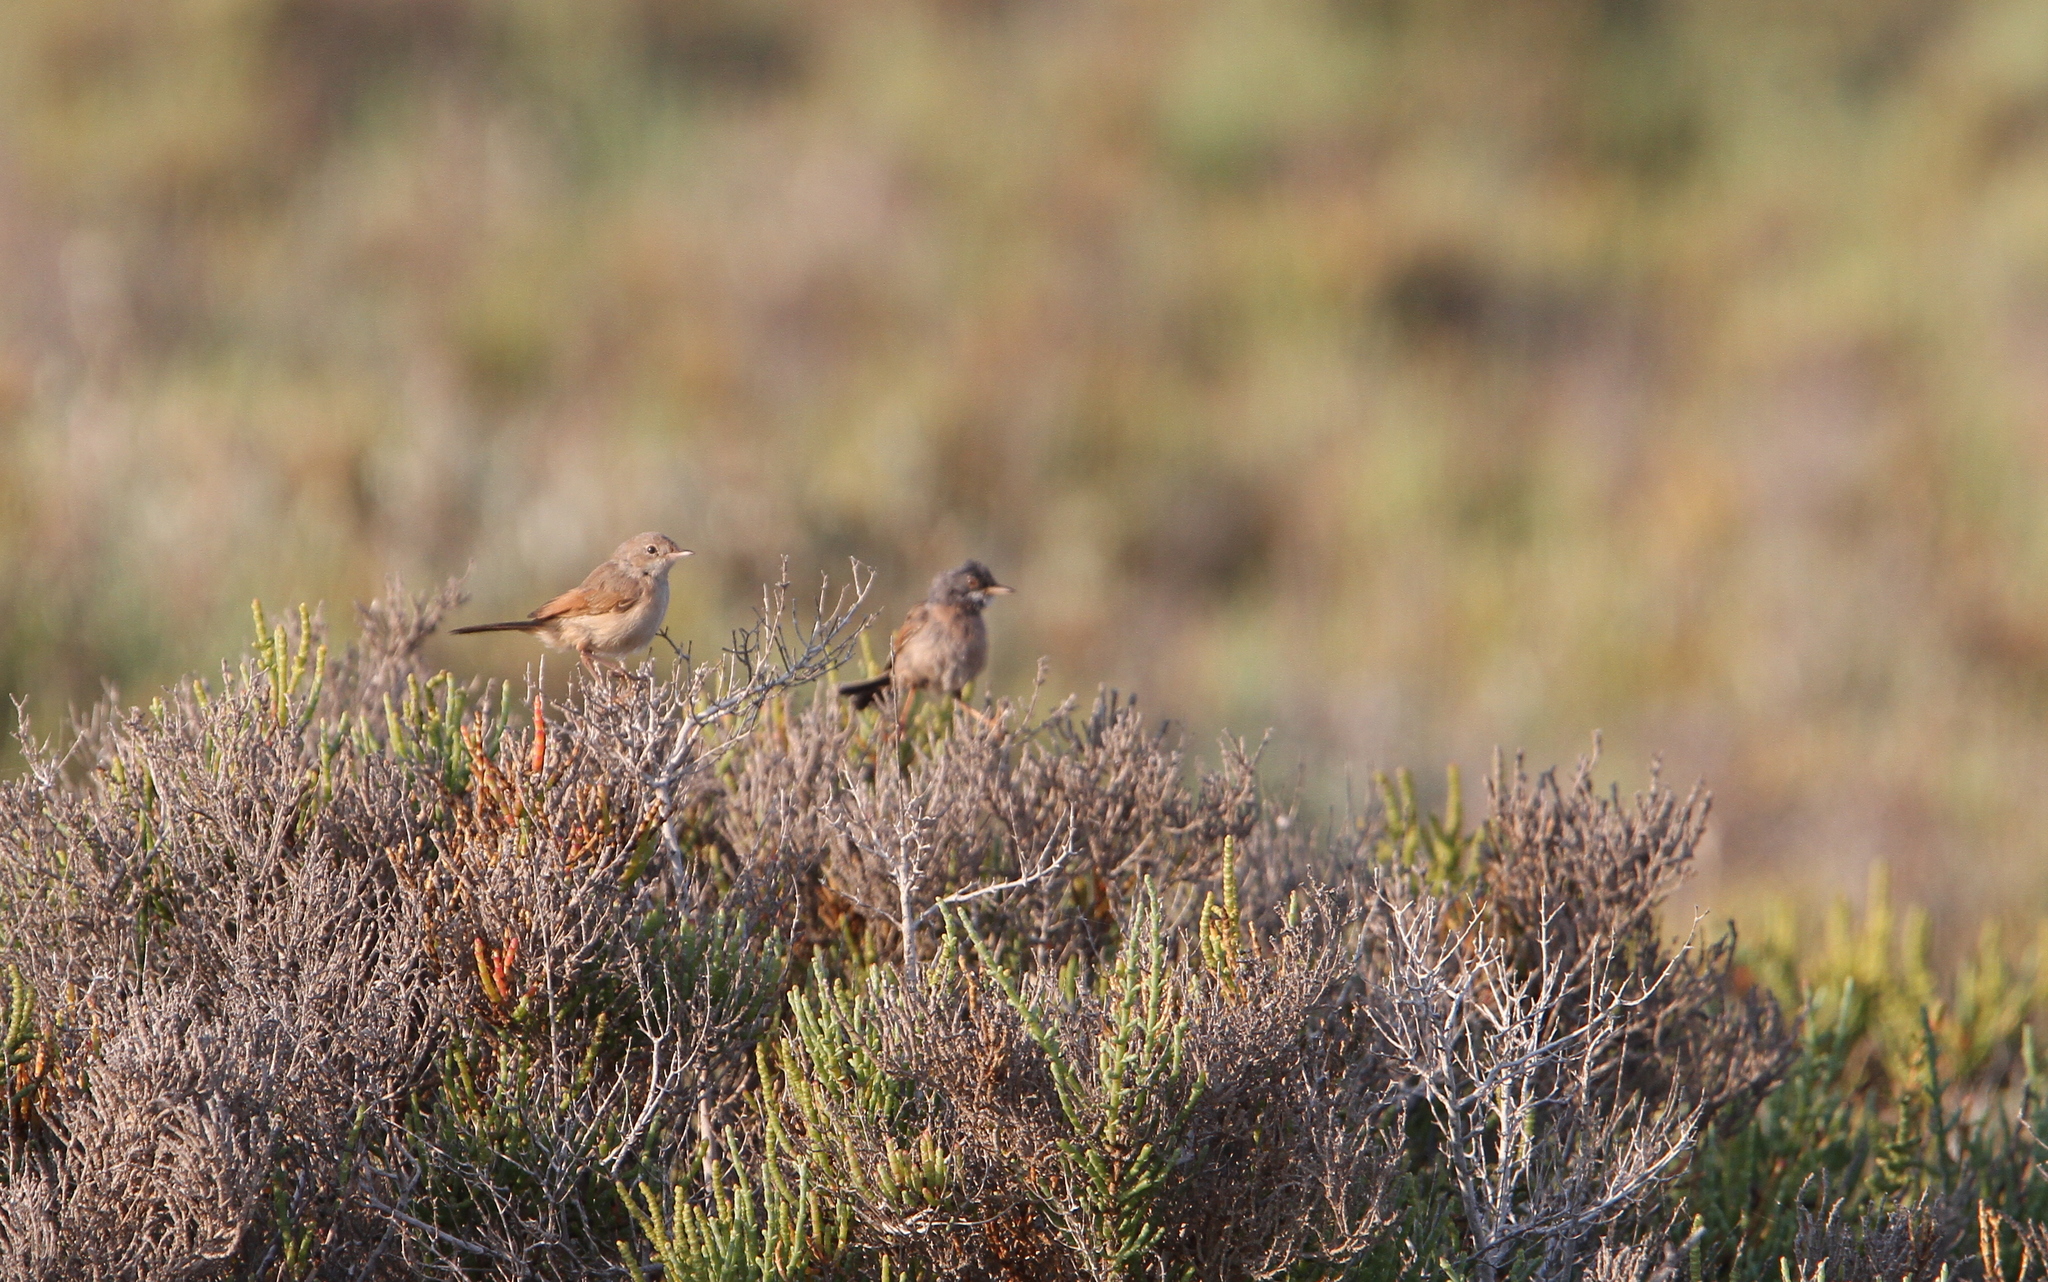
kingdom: Animalia
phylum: Chordata
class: Aves
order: Passeriformes
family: Sylviidae
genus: Sylvia
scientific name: Sylvia conspicillata
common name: Spectacled warbler
